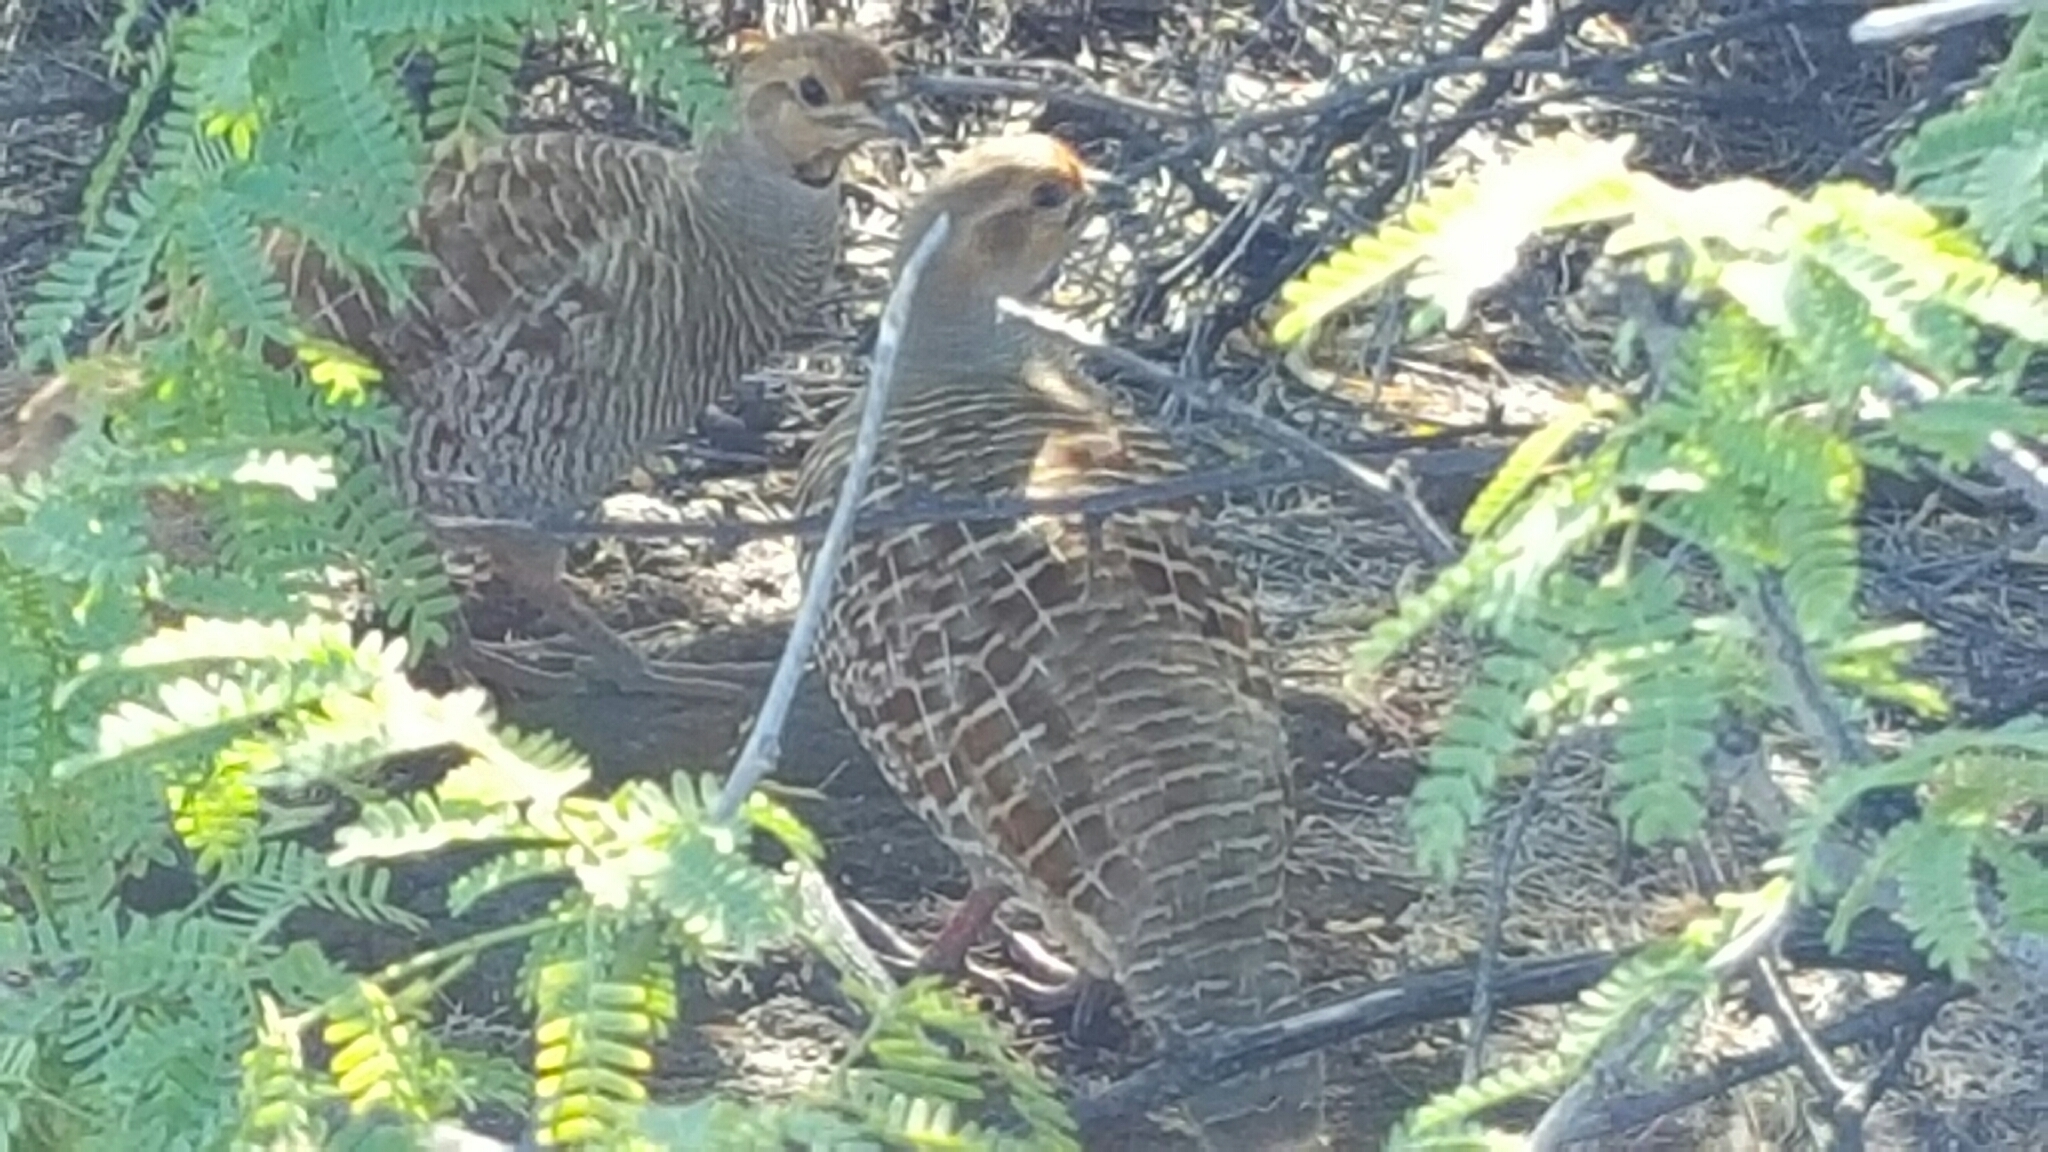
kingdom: Animalia
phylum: Chordata
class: Aves
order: Galliformes
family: Phasianidae
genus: Ortygornis
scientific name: Ortygornis pondicerianus
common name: Grey francolin
